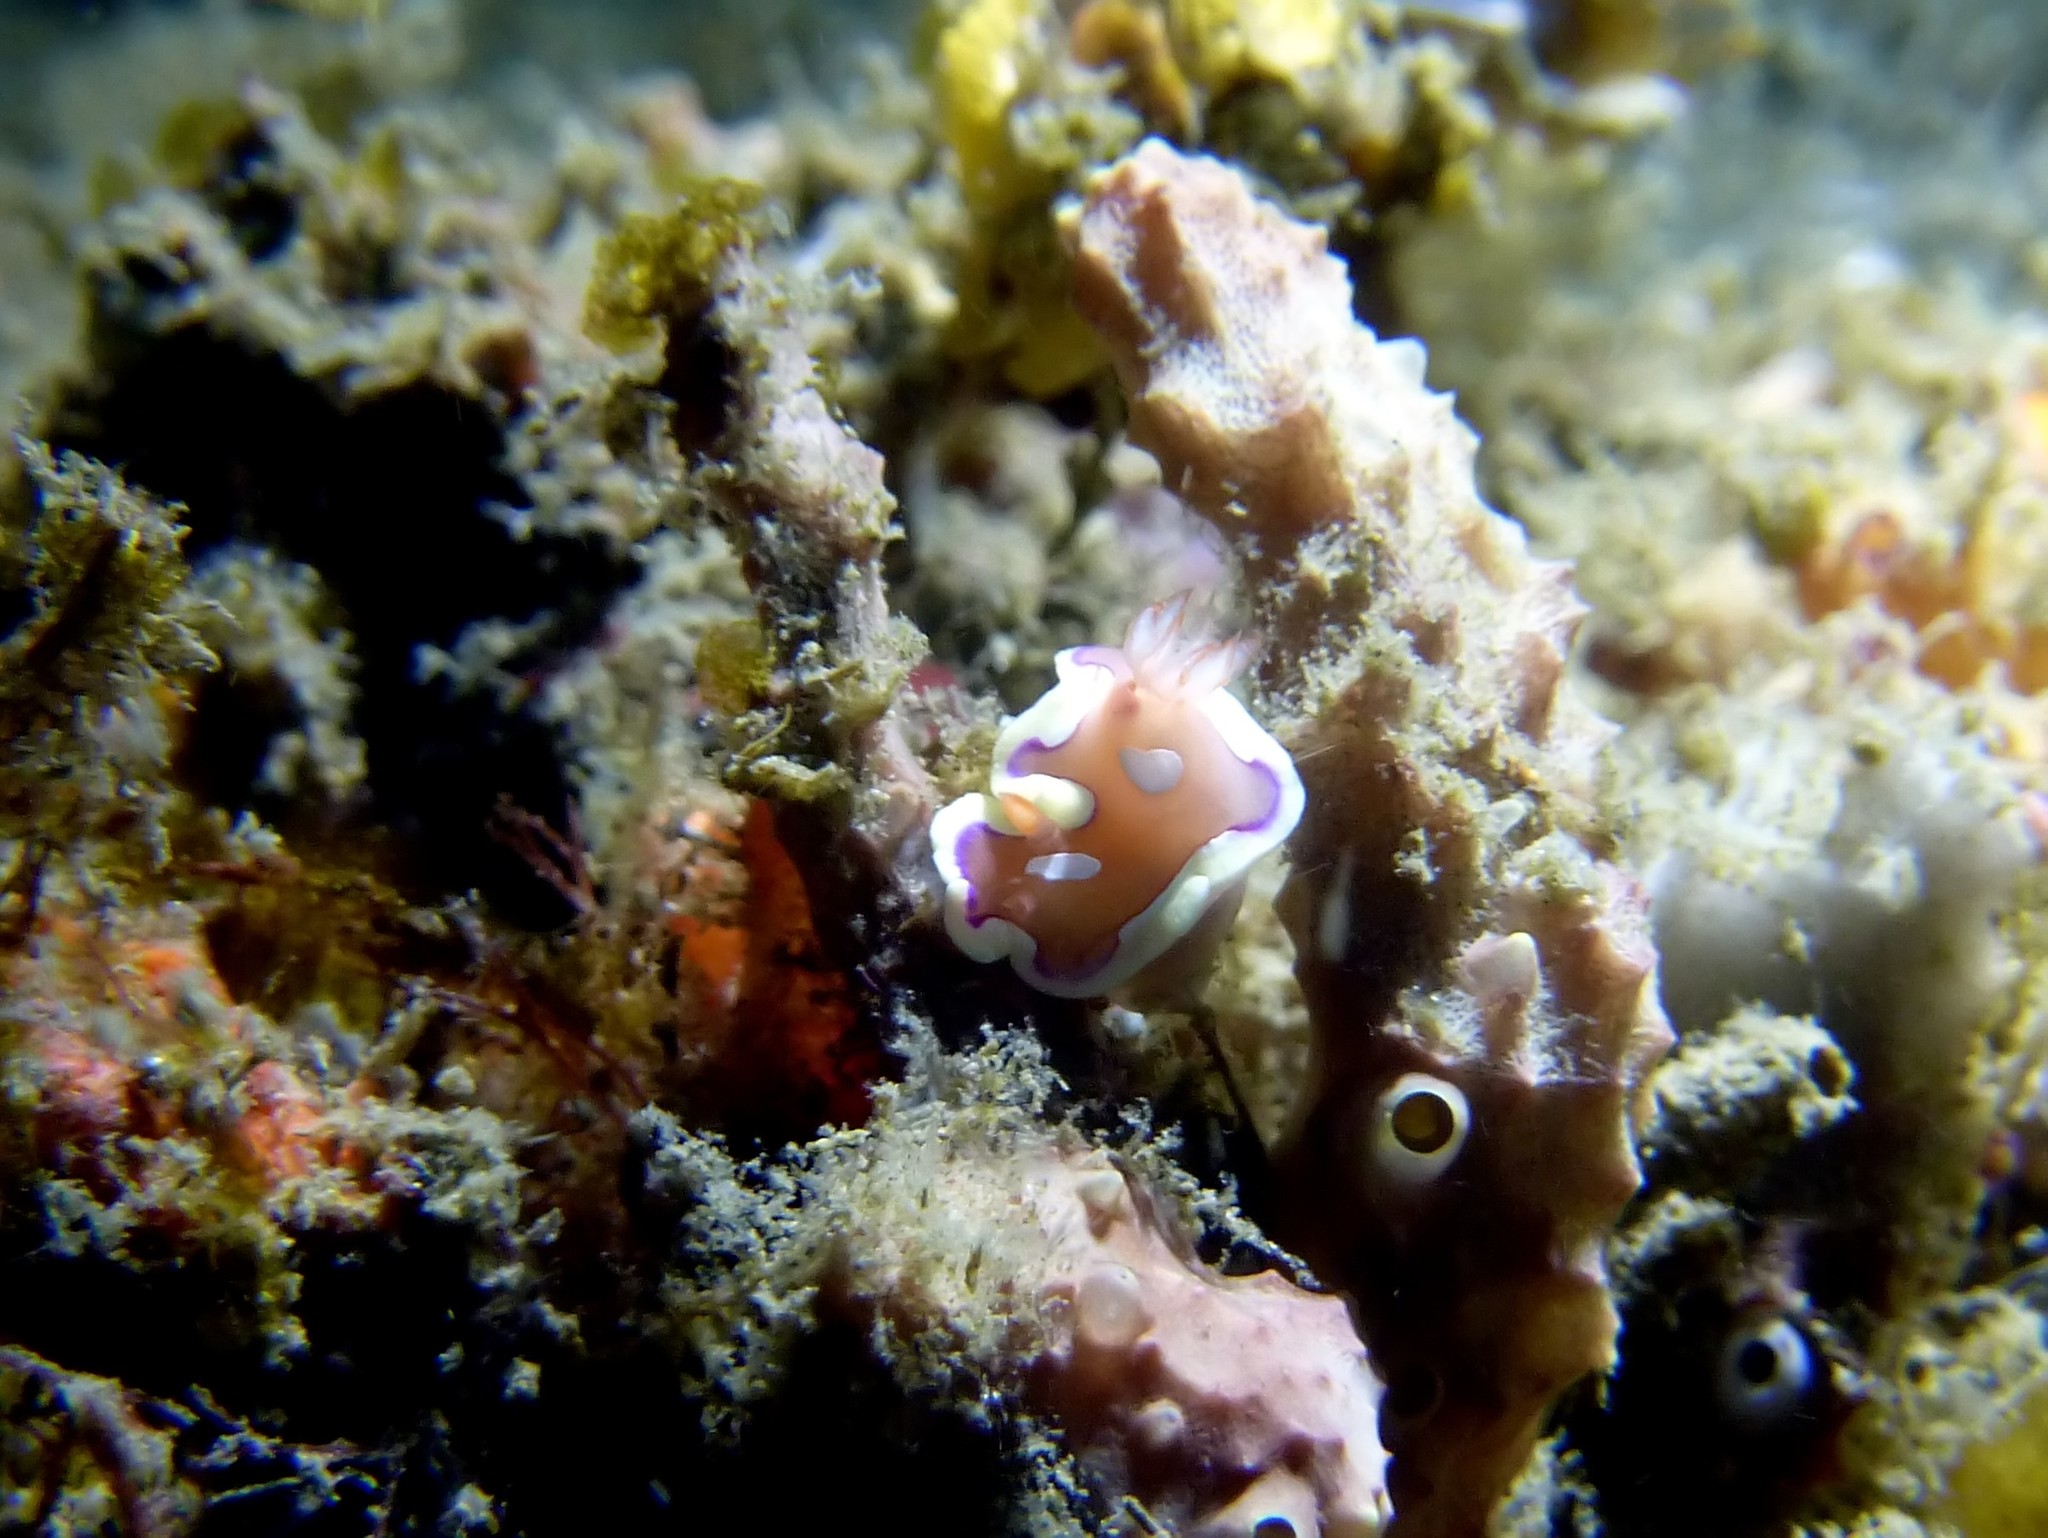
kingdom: Animalia
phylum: Mollusca
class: Gastropoda
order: Nudibranchia
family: Chromodorididae
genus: Mexichromis
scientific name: Mexichromis pusilla
